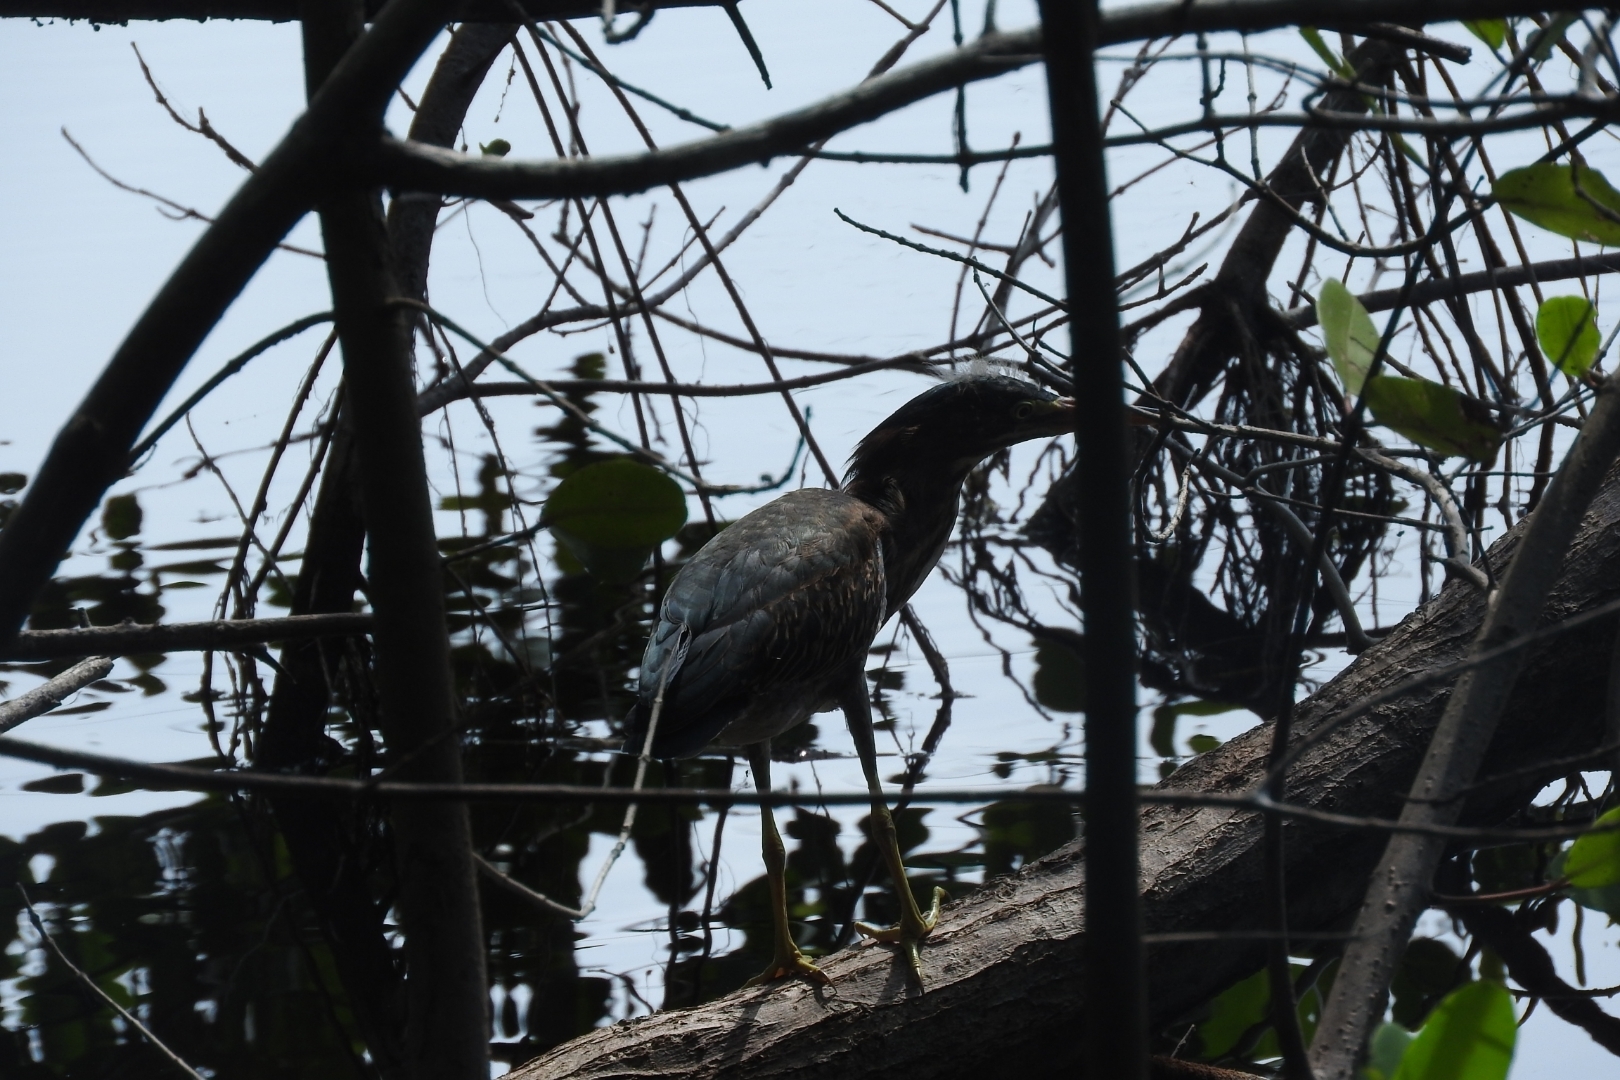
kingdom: Animalia
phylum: Chordata
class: Aves
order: Pelecaniformes
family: Ardeidae
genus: Butorides
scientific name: Butorides virescens
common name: Green heron
